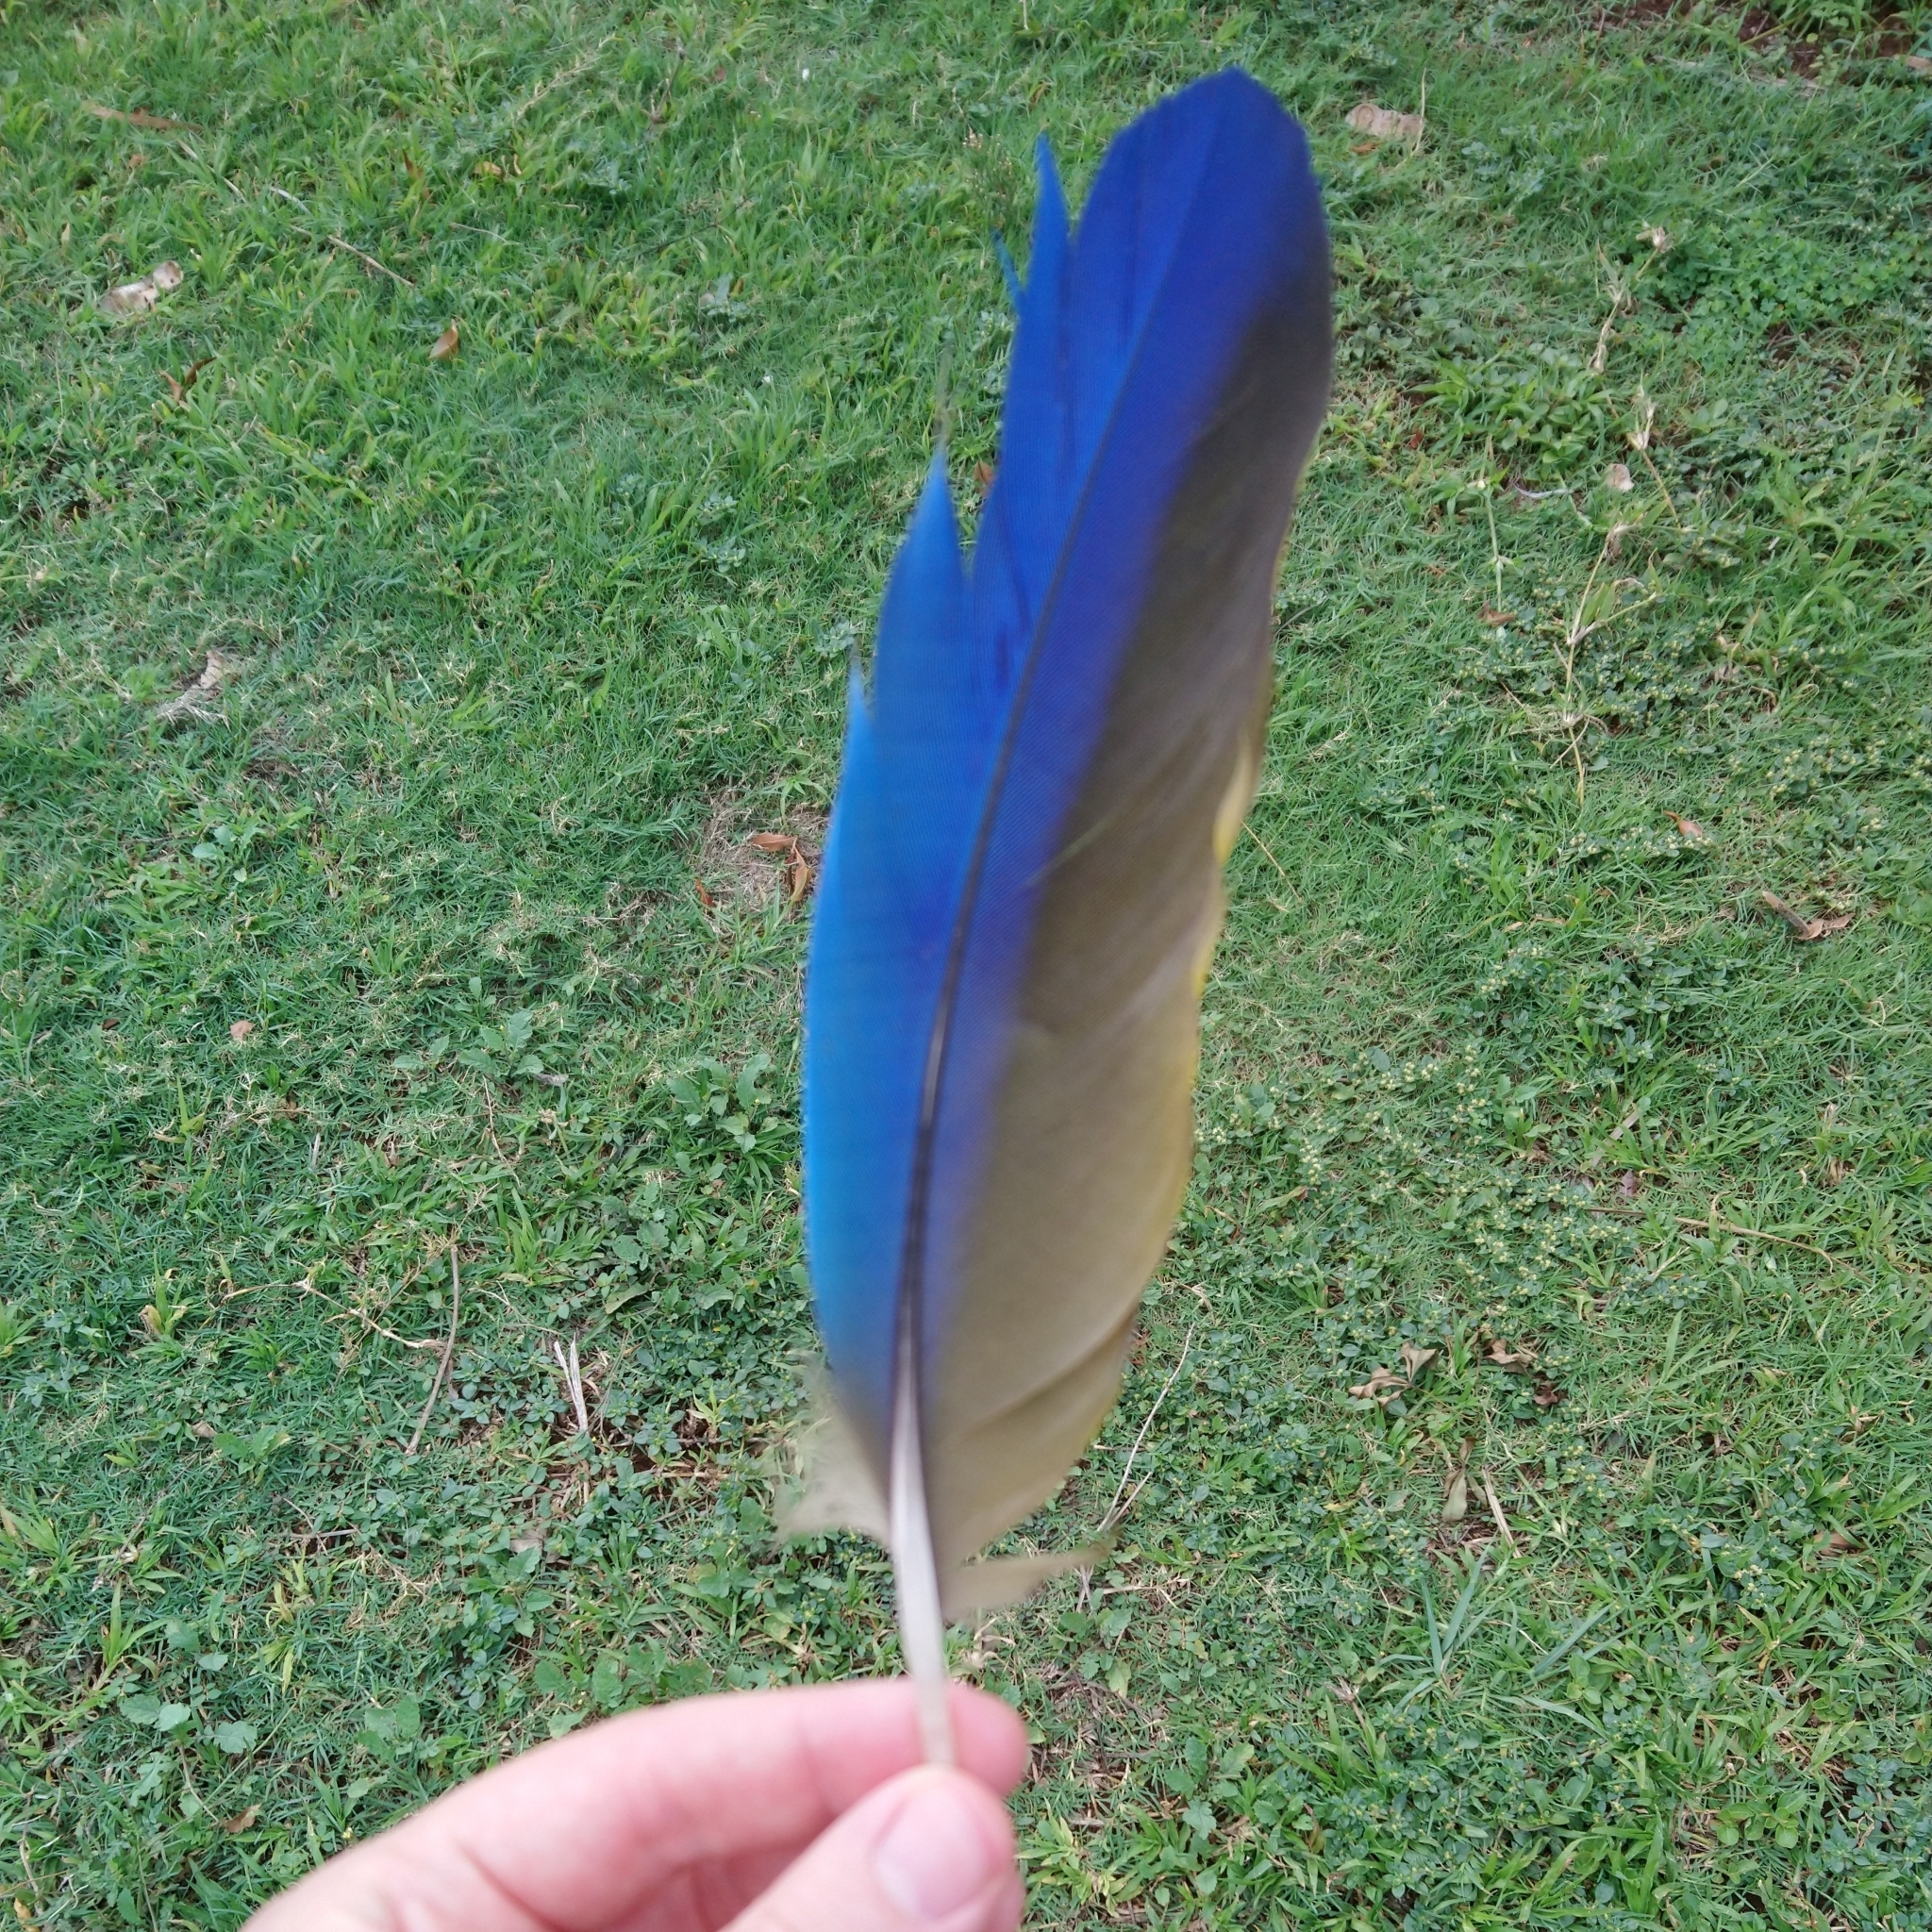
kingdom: Animalia
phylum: Chordata
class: Aves
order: Psittaciformes
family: Psittacidae
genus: Ara
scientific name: Ara ararauna
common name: Blue-and-yellow macaw
